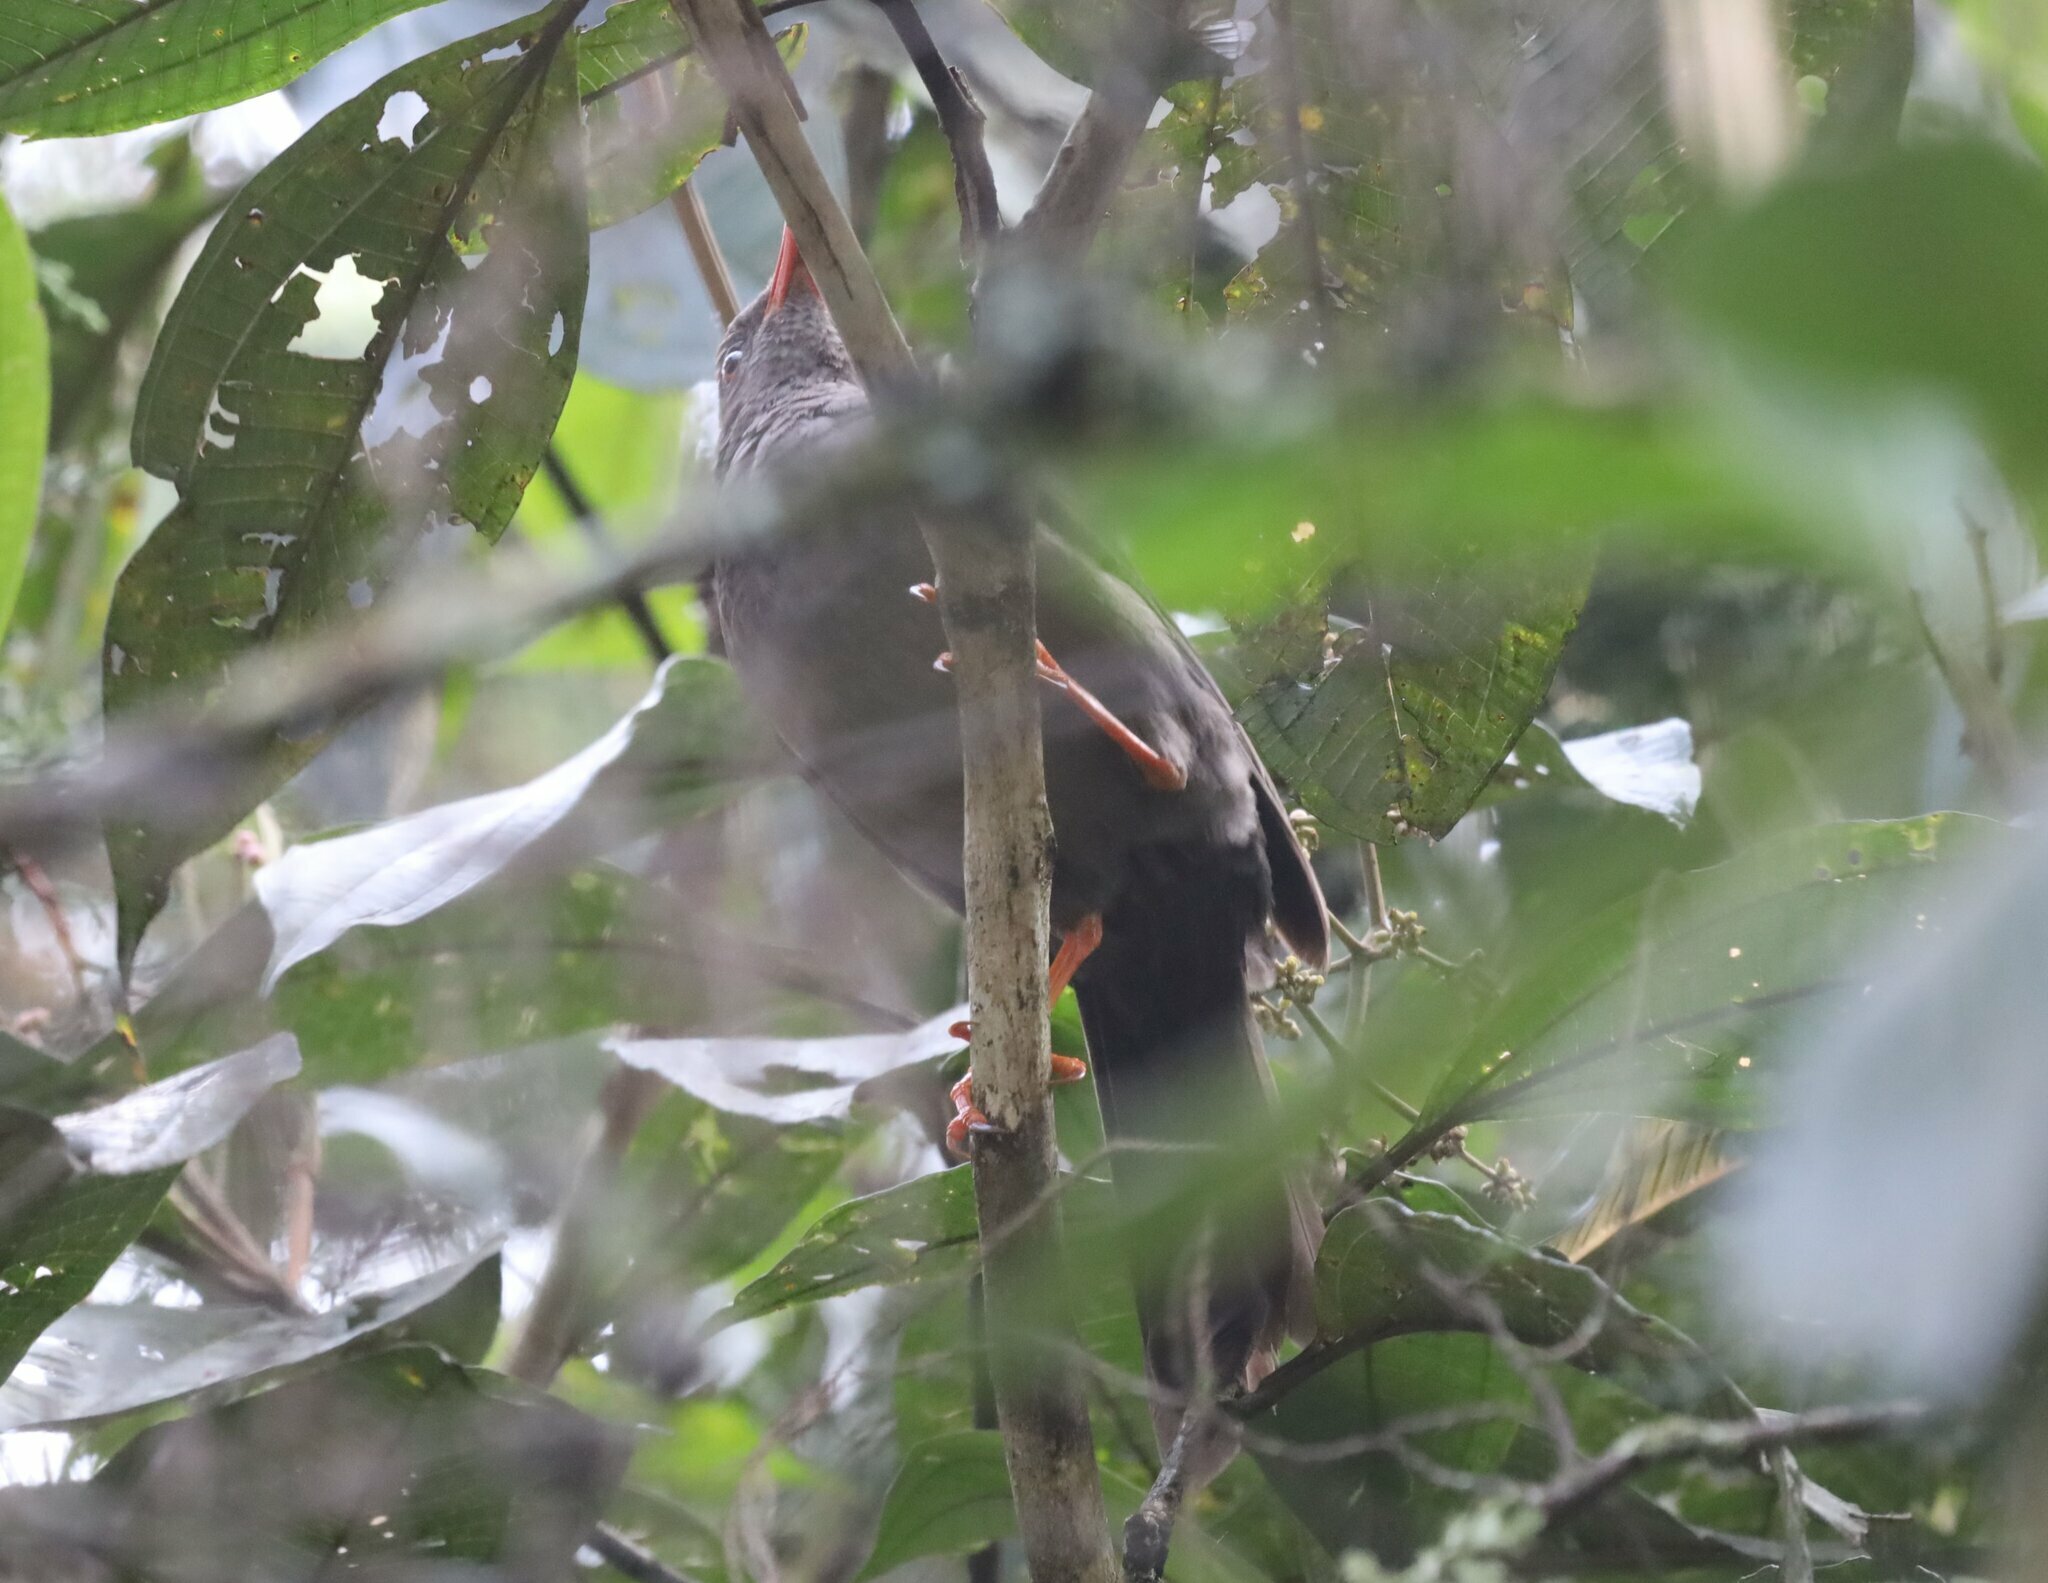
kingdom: Animalia
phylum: Chordata
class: Aves
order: Passeriformes
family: Turdidae
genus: Turdus
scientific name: Turdus fuscater
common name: Great thrush
